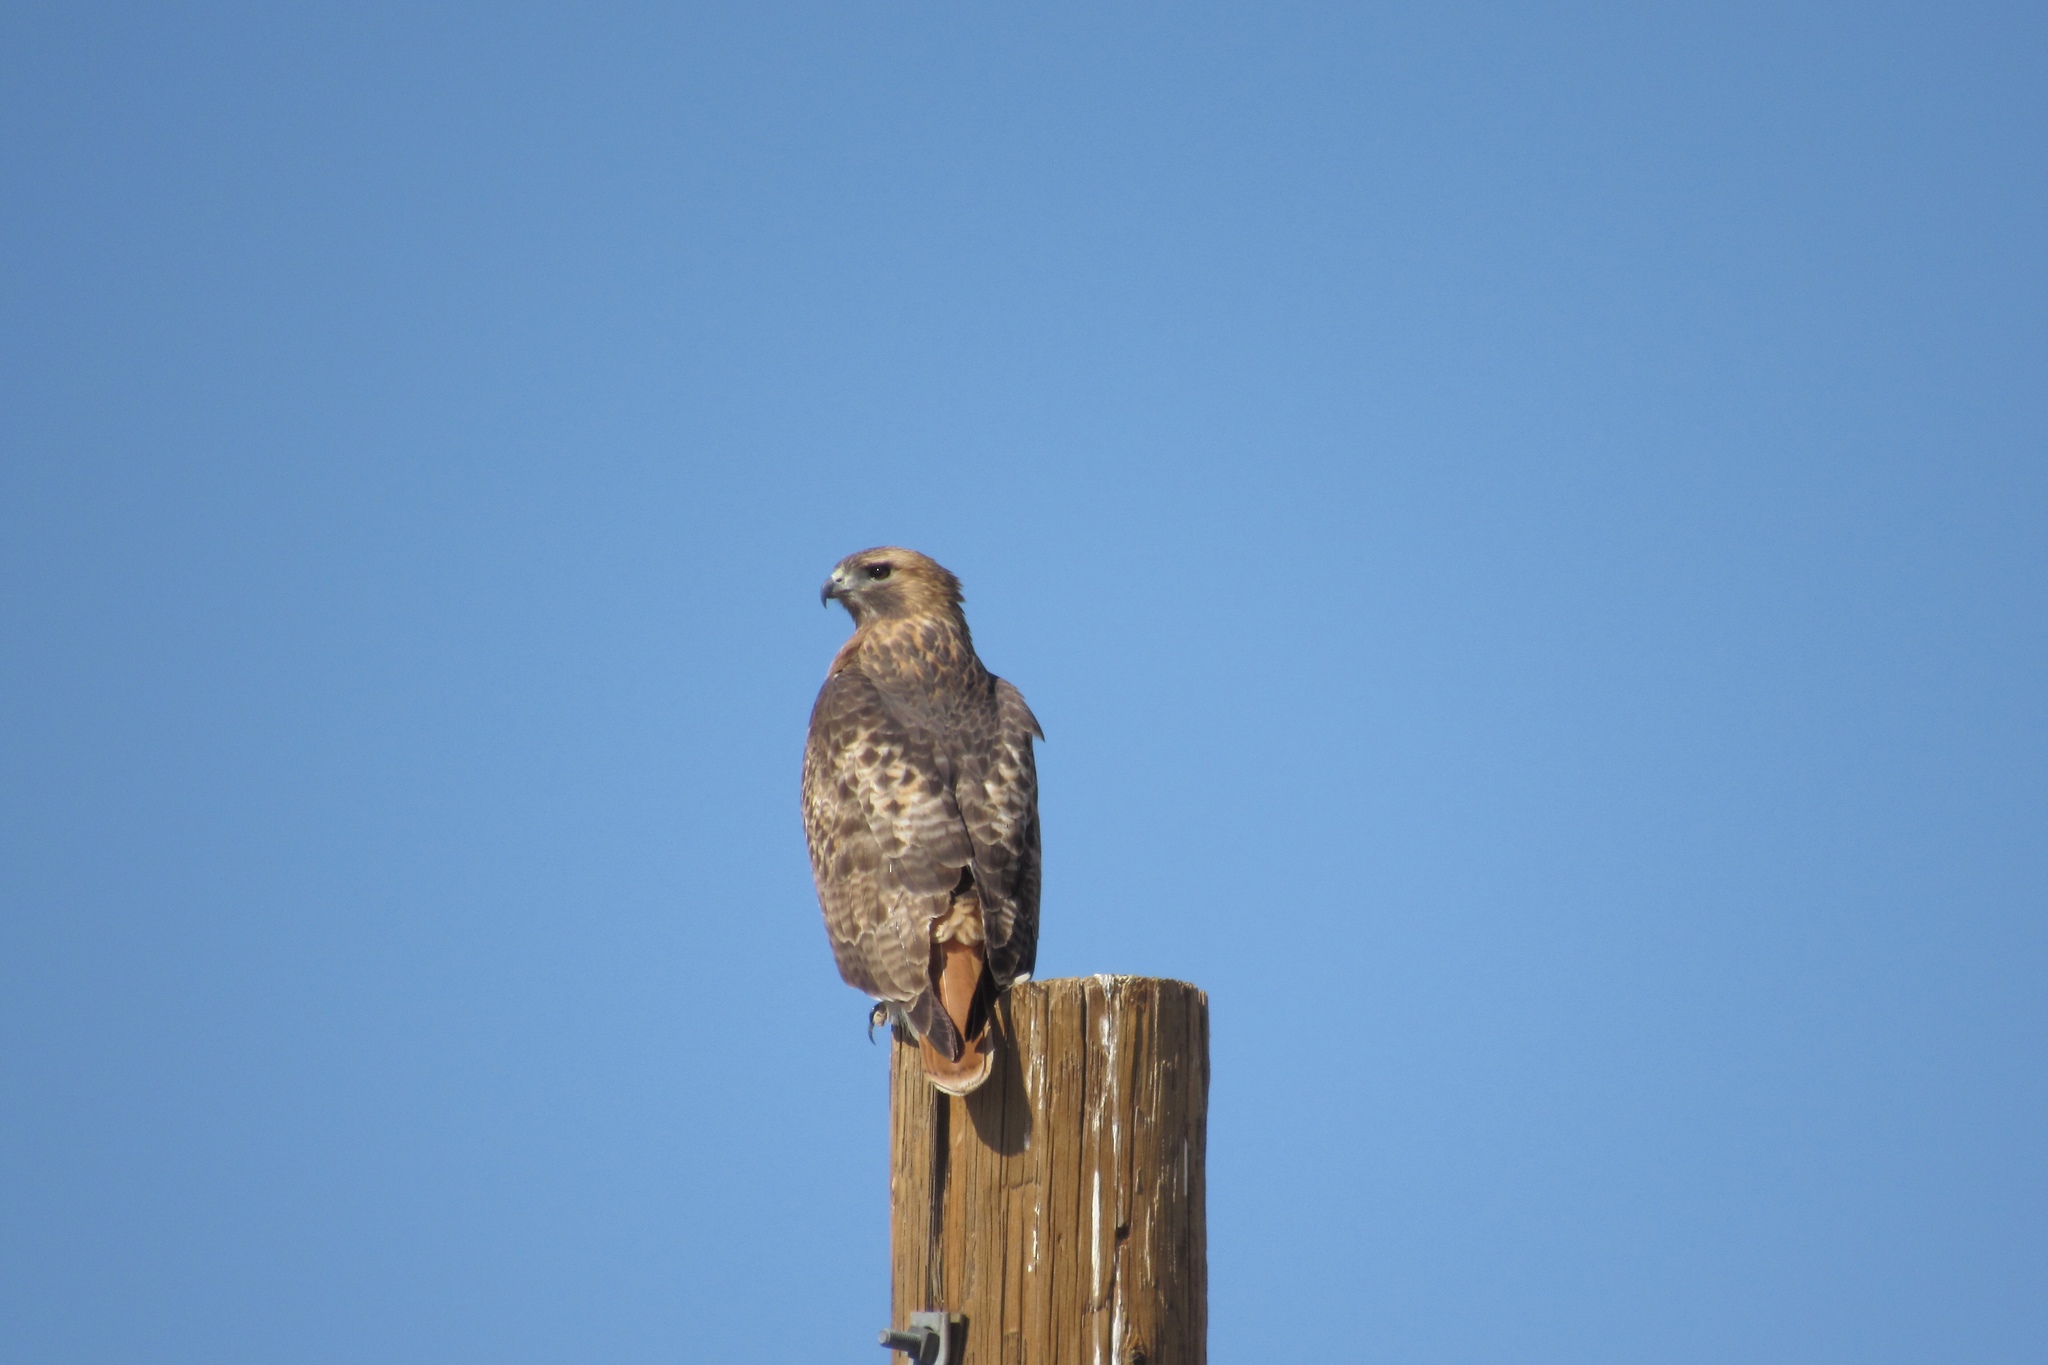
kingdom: Animalia
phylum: Chordata
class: Aves
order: Accipitriformes
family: Accipitridae
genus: Buteo
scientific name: Buteo jamaicensis
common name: Red-tailed hawk
